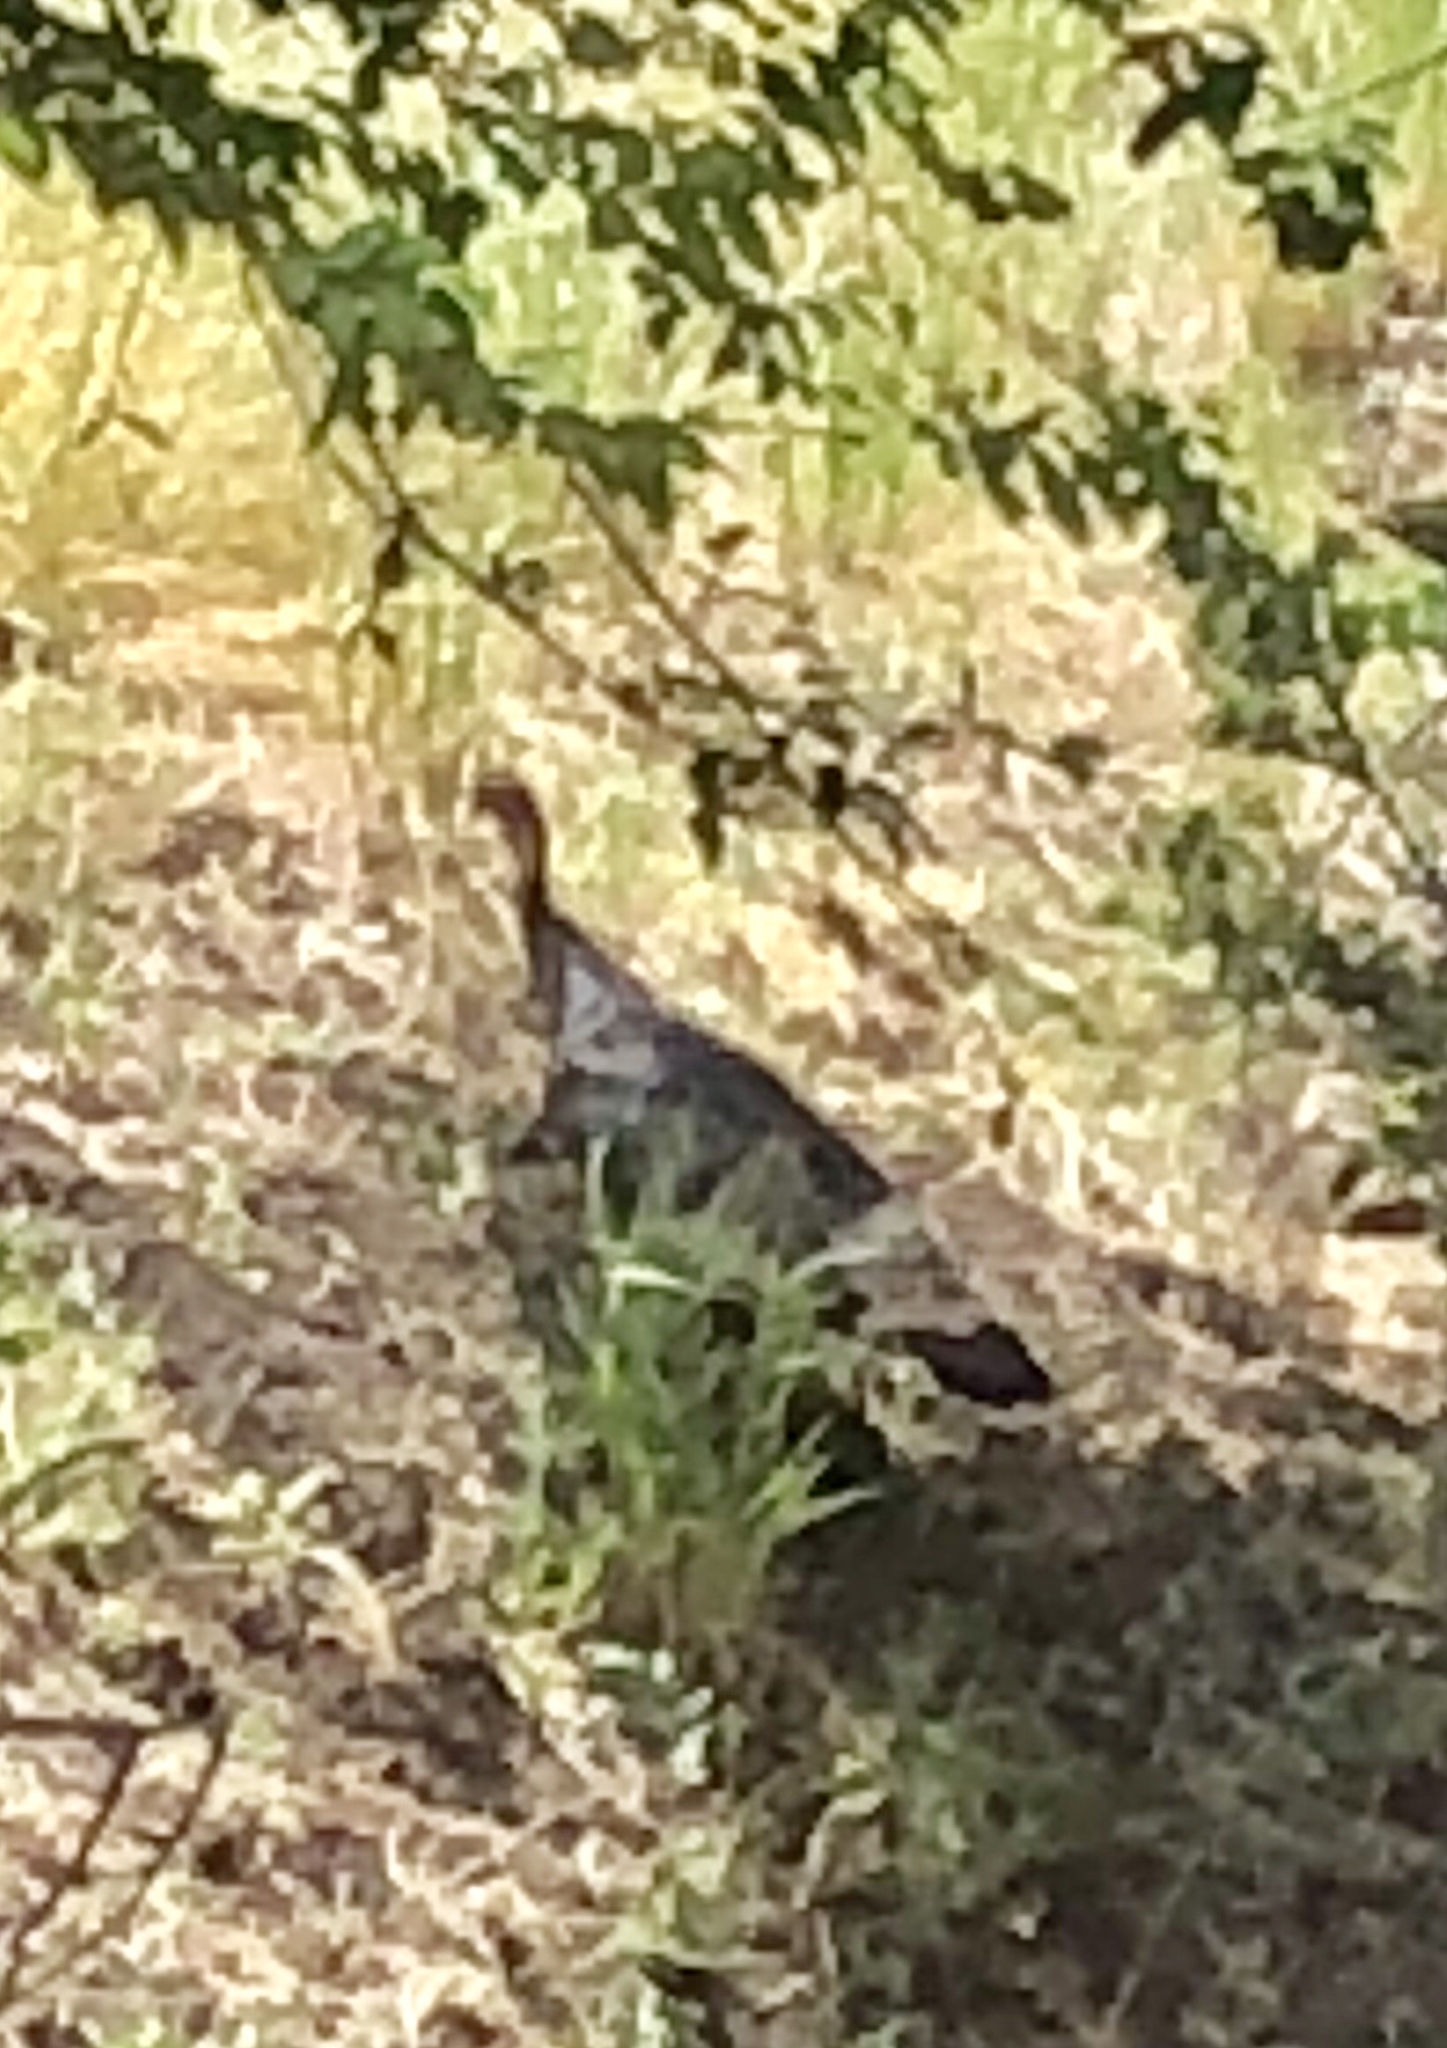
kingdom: Animalia
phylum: Chordata
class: Aves
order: Galliformes
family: Phasianidae
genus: Meleagris
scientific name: Meleagris gallopavo
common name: Wild turkey
